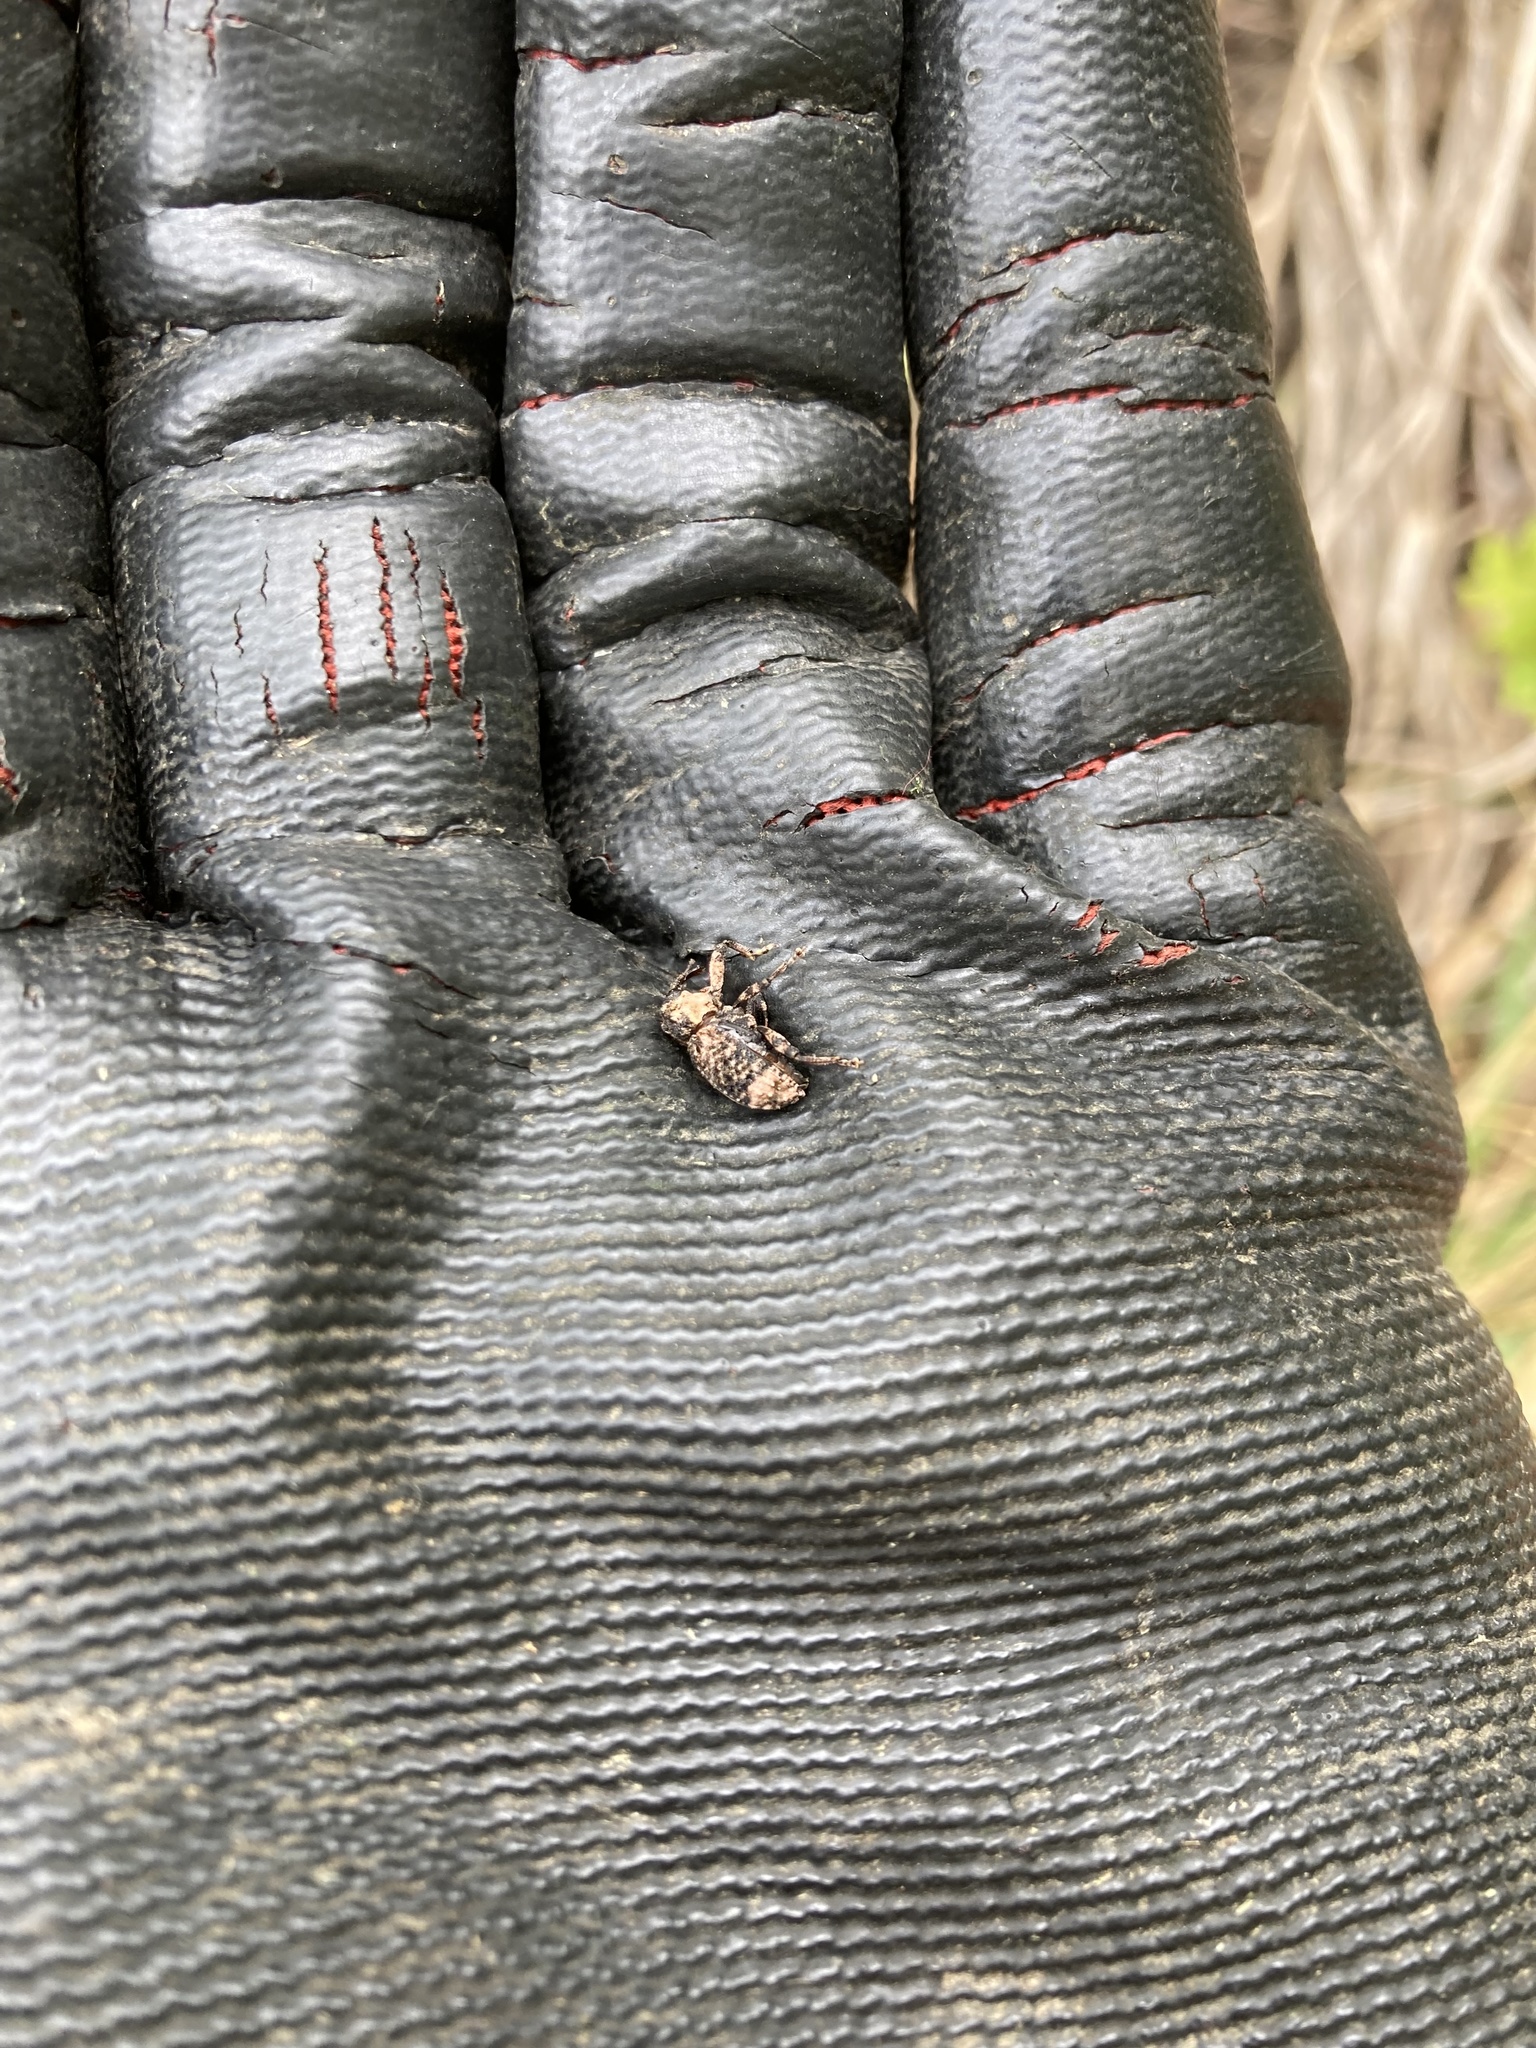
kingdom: Animalia
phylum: Arthropoda
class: Insecta
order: Coleoptera
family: Curculionidae
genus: Cryptorhynchus
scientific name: Cryptorhynchus lapathi
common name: Weevil
